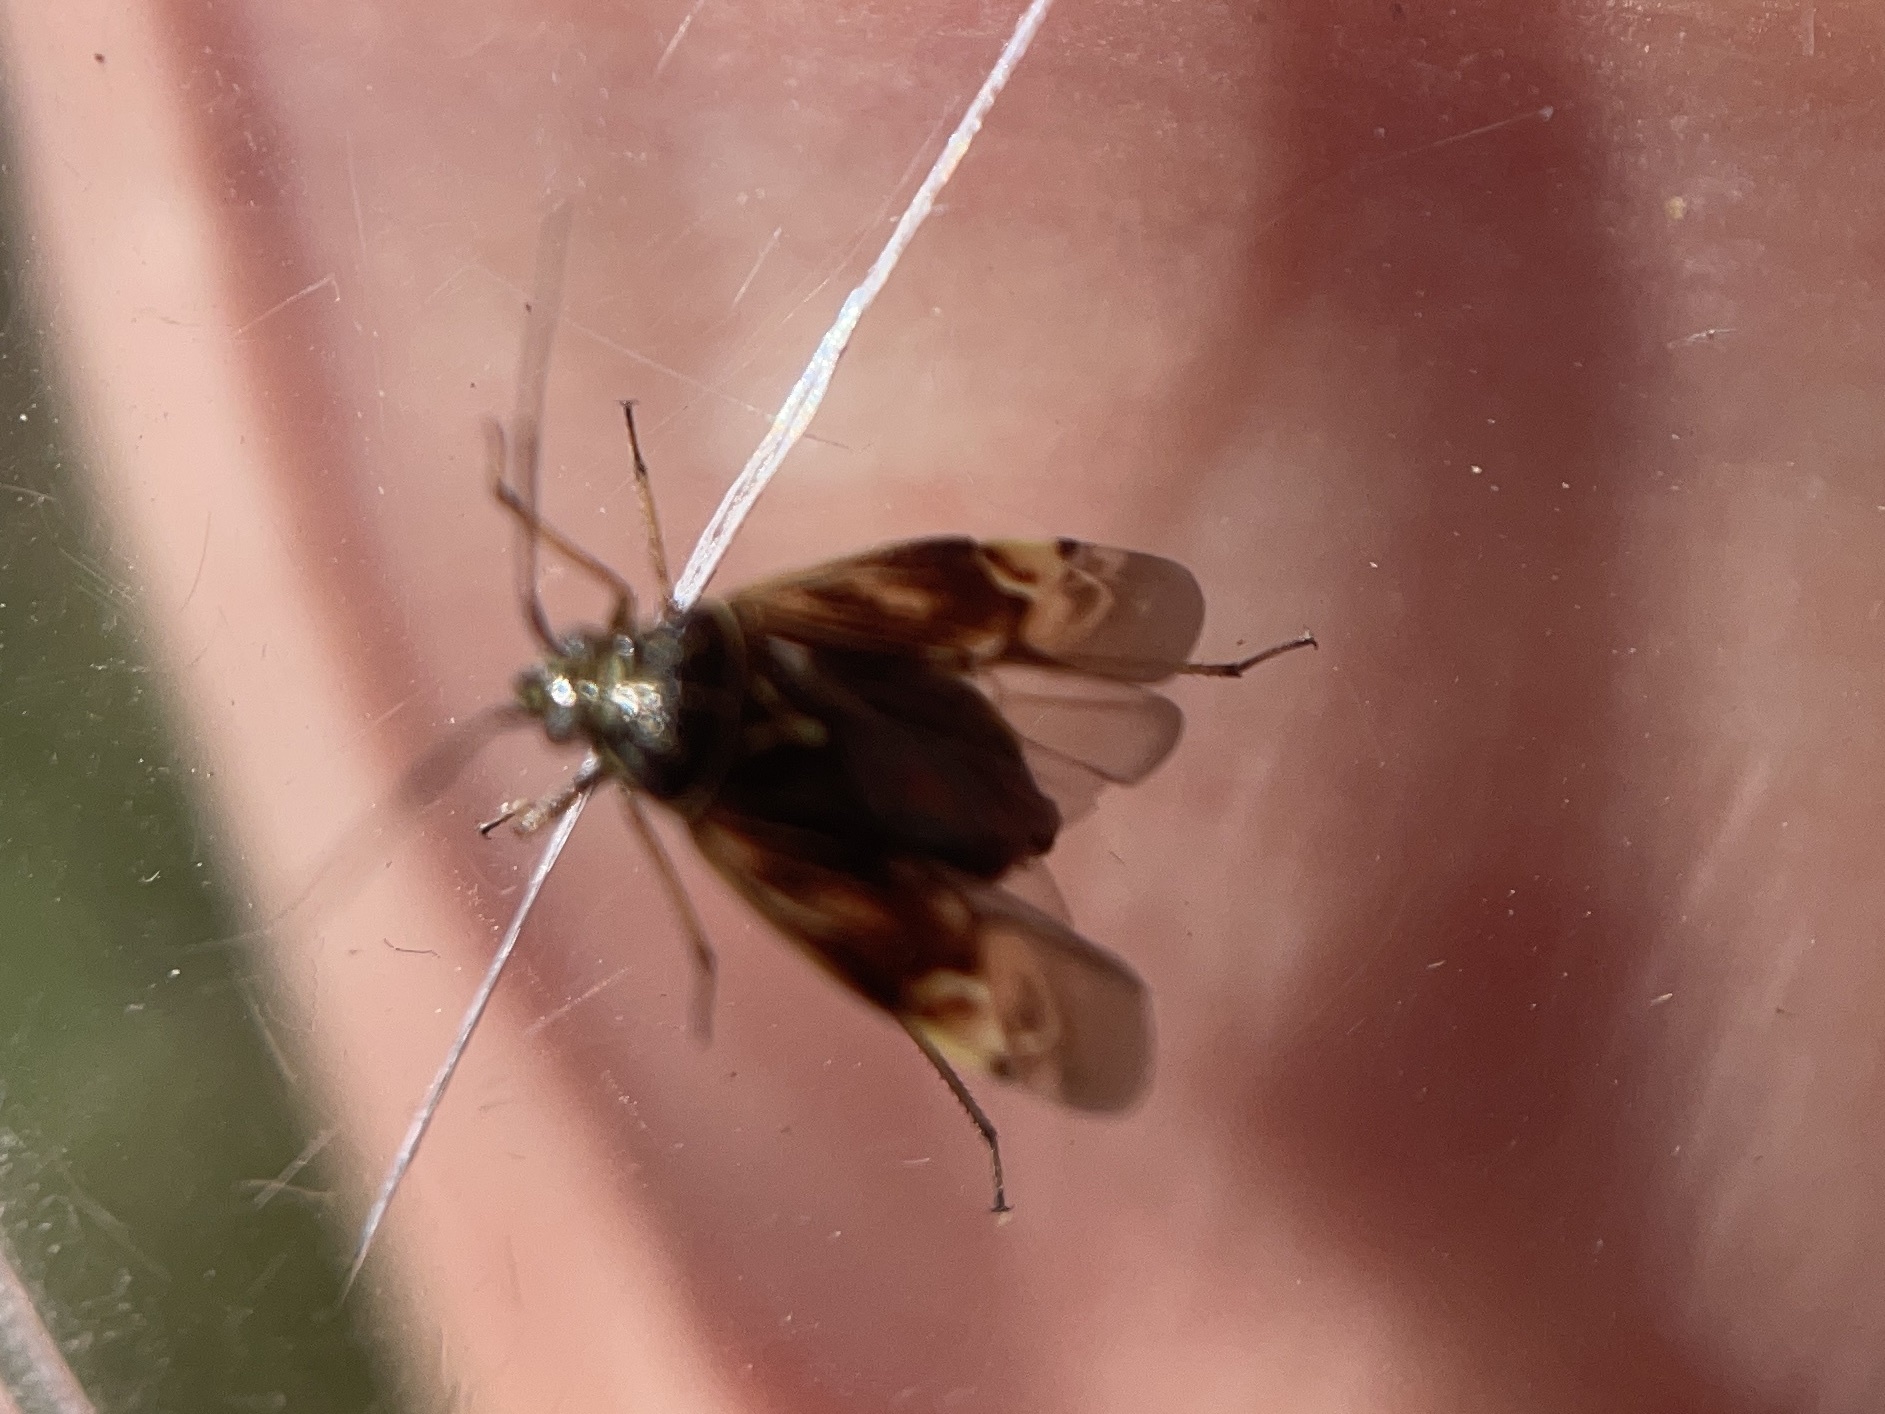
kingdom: Animalia
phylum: Arthropoda
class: Insecta
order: Hemiptera
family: Miridae
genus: Lygus
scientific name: Lygus lineolaris
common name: North american tarnished plant bug
